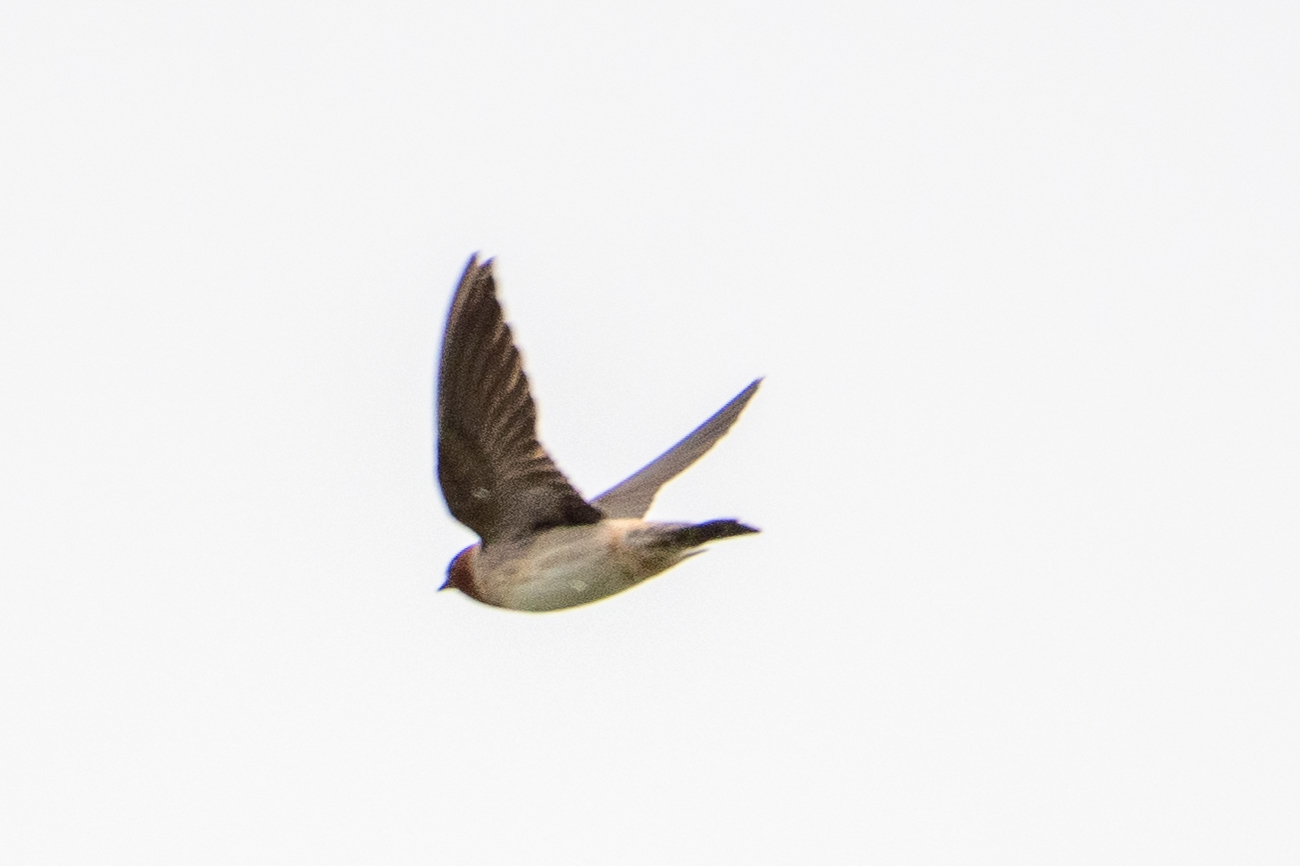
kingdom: Animalia
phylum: Chordata
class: Aves
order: Passeriformes
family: Hirundinidae
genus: Petrochelidon
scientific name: Petrochelidon pyrrhonota
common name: American cliff swallow
